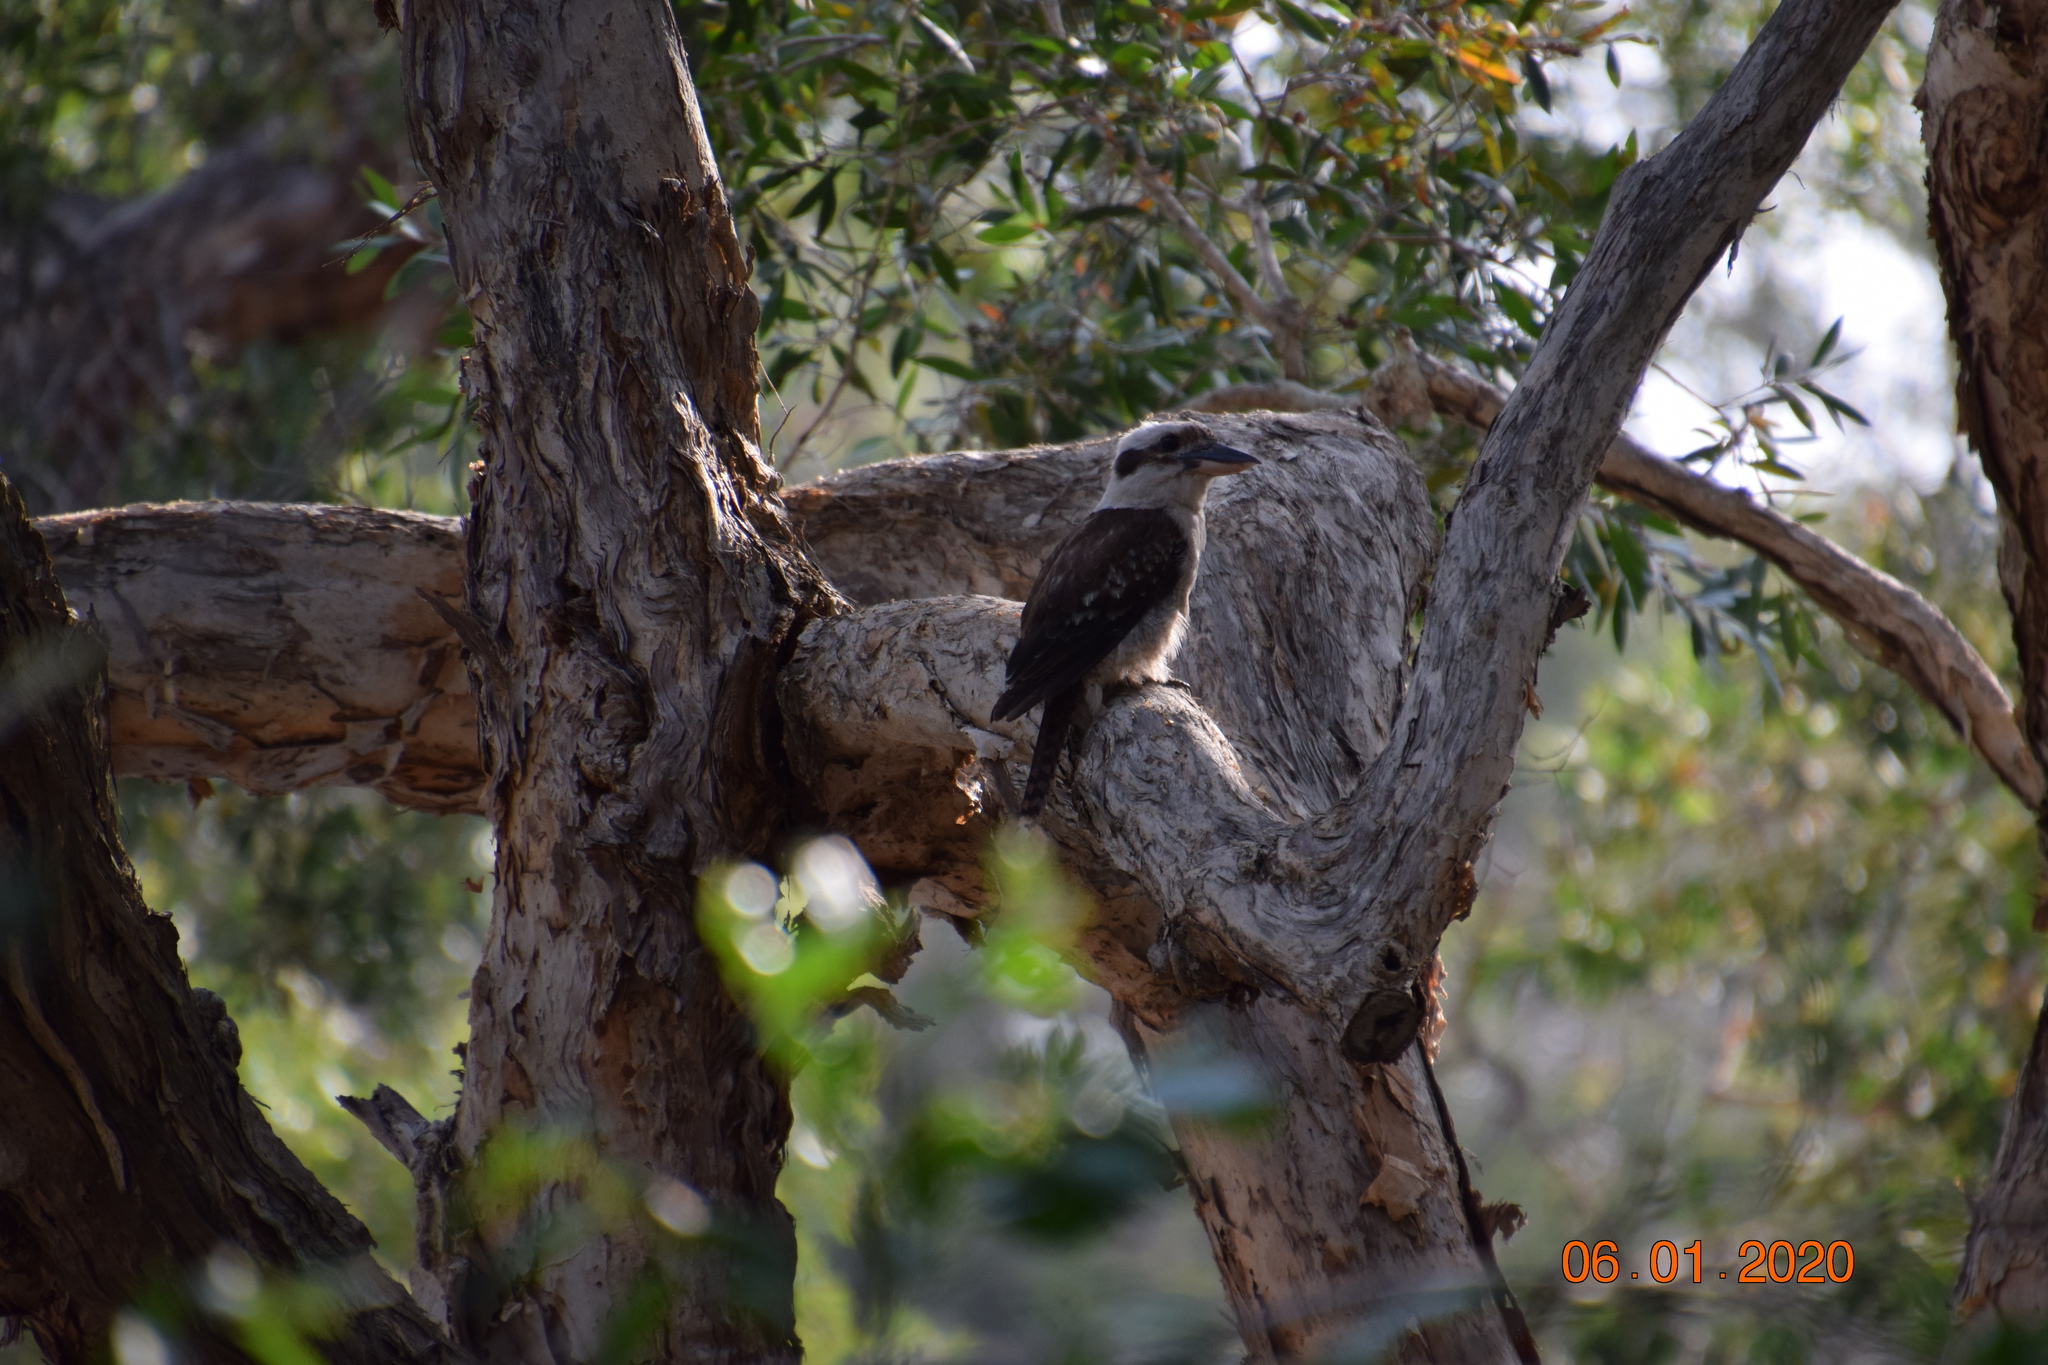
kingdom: Animalia
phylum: Chordata
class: Aves
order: Coraciiformes
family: Alcedinidae
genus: Dacelo
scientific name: Dacelo novaeguineae
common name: Laughing kookaburra
